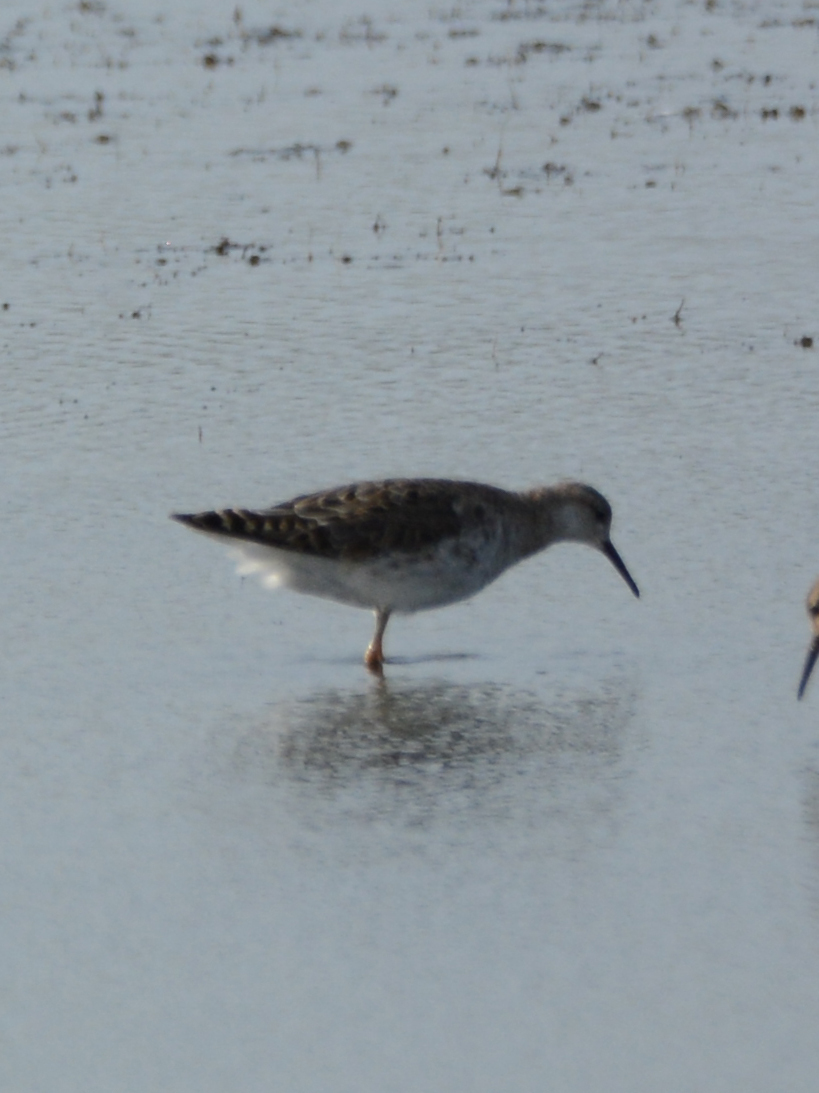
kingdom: Animalia
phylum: Chordata
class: Aves
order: Charadriiformes
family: Scolopacidae
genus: Calidris
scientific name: Calidris pugnax
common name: Ruff
